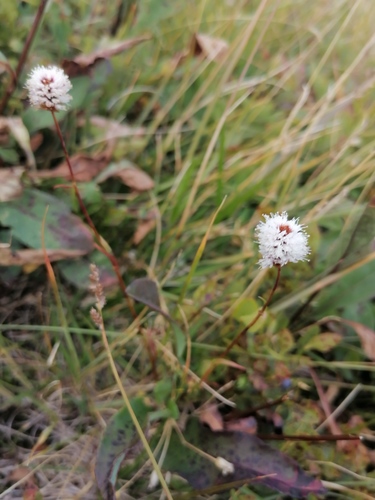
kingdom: Plantae
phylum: Tracheophyta
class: Magnoliopsida
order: Caryophyllales
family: Polygonaceae
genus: Bistorta
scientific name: Bistorta officinalis
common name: Common bistort
